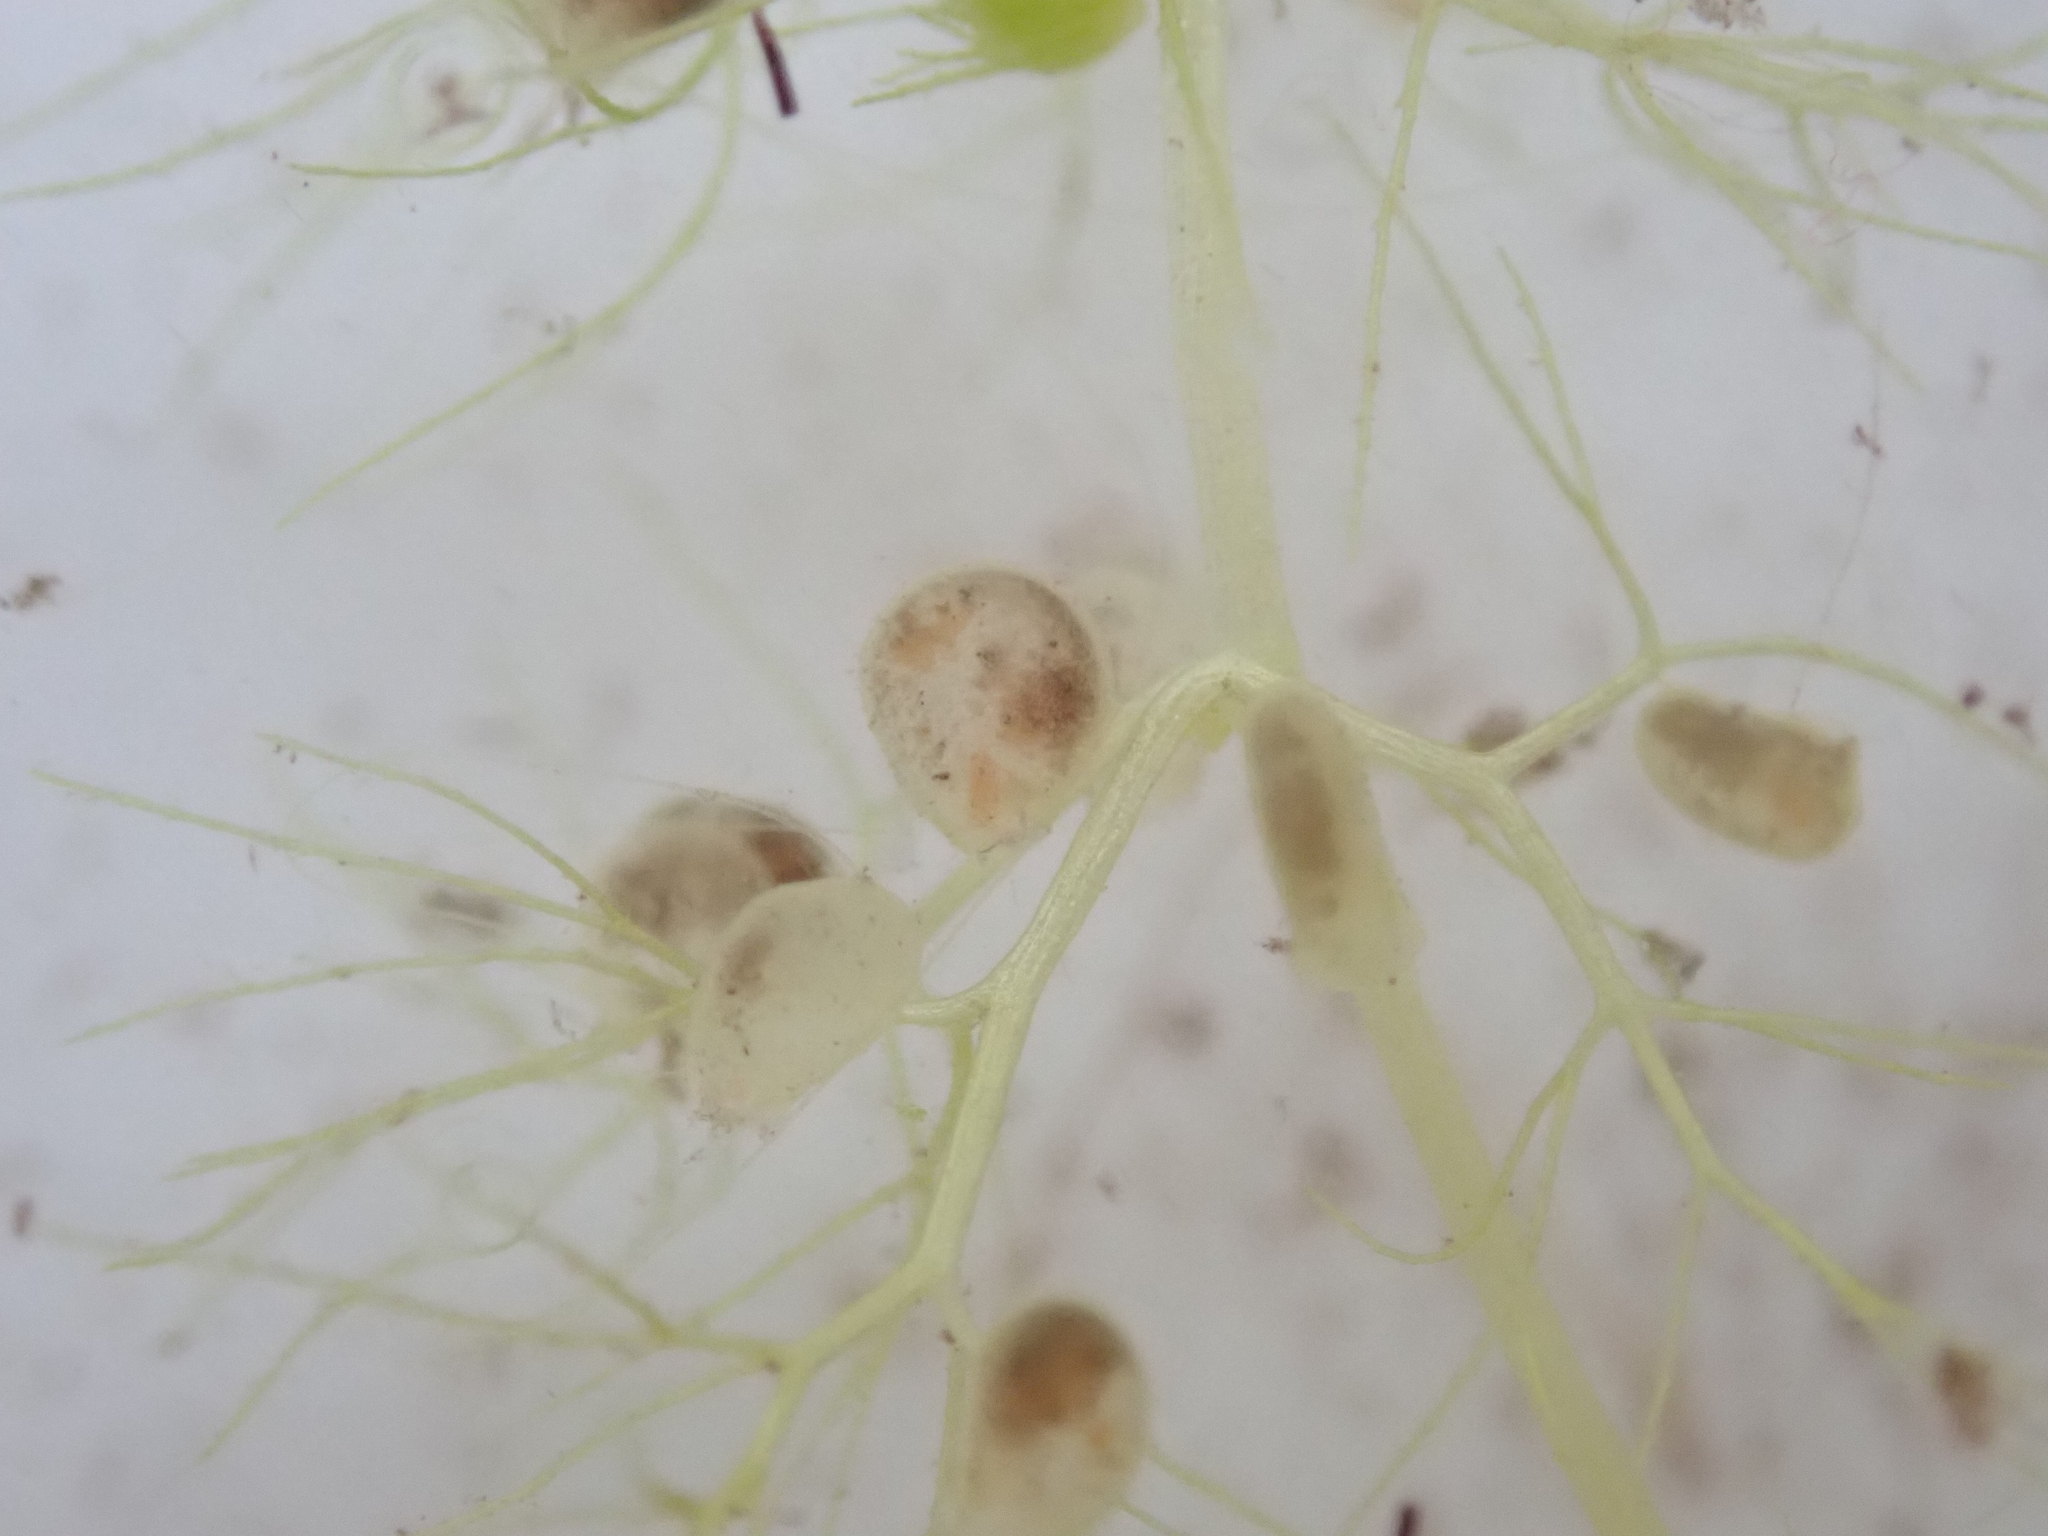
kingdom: Plantae
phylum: Tracheophyta
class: Magnoliopsida
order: Lamiales
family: Lentibulariaceae
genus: Utricularia
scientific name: Utricularia stellaris
